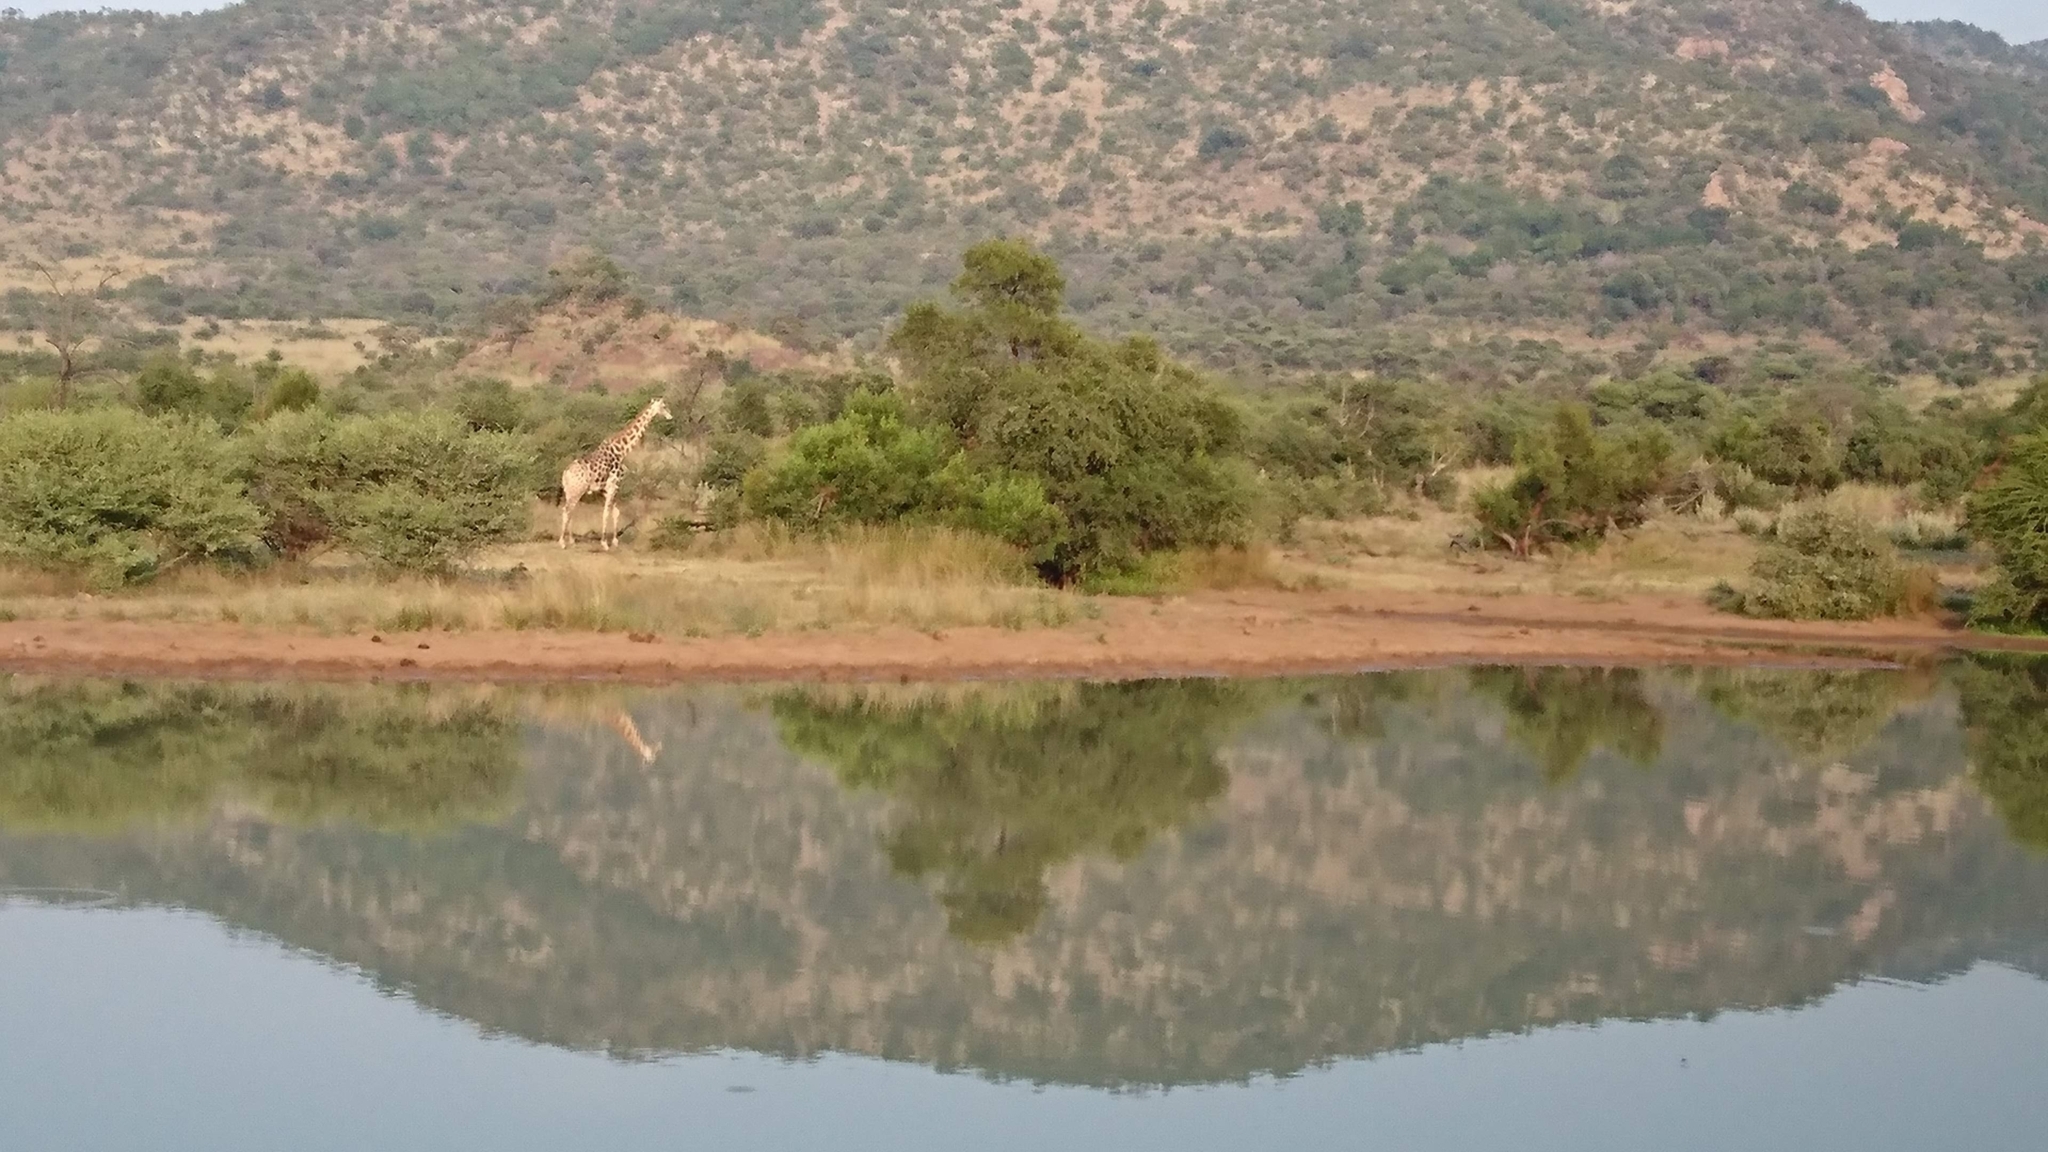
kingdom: Animalia
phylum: Chordata
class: Mammalia
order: Artiodactyla
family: Giraffidae
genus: Giraffa
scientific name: Giraffa giraffa
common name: Southern giraffe
